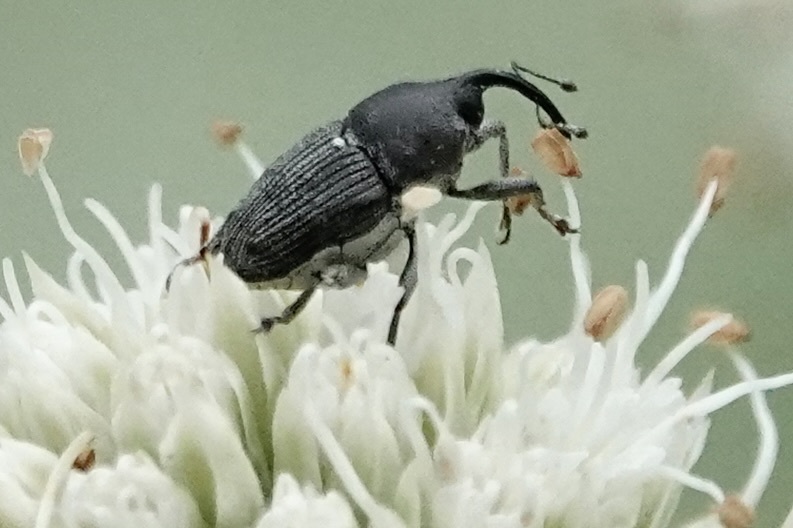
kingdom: Animalia
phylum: Arthropoda
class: Insecta
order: Coleoptera
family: Curculionidae
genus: Odontocorynus
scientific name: Odontocorynus salebrosus
